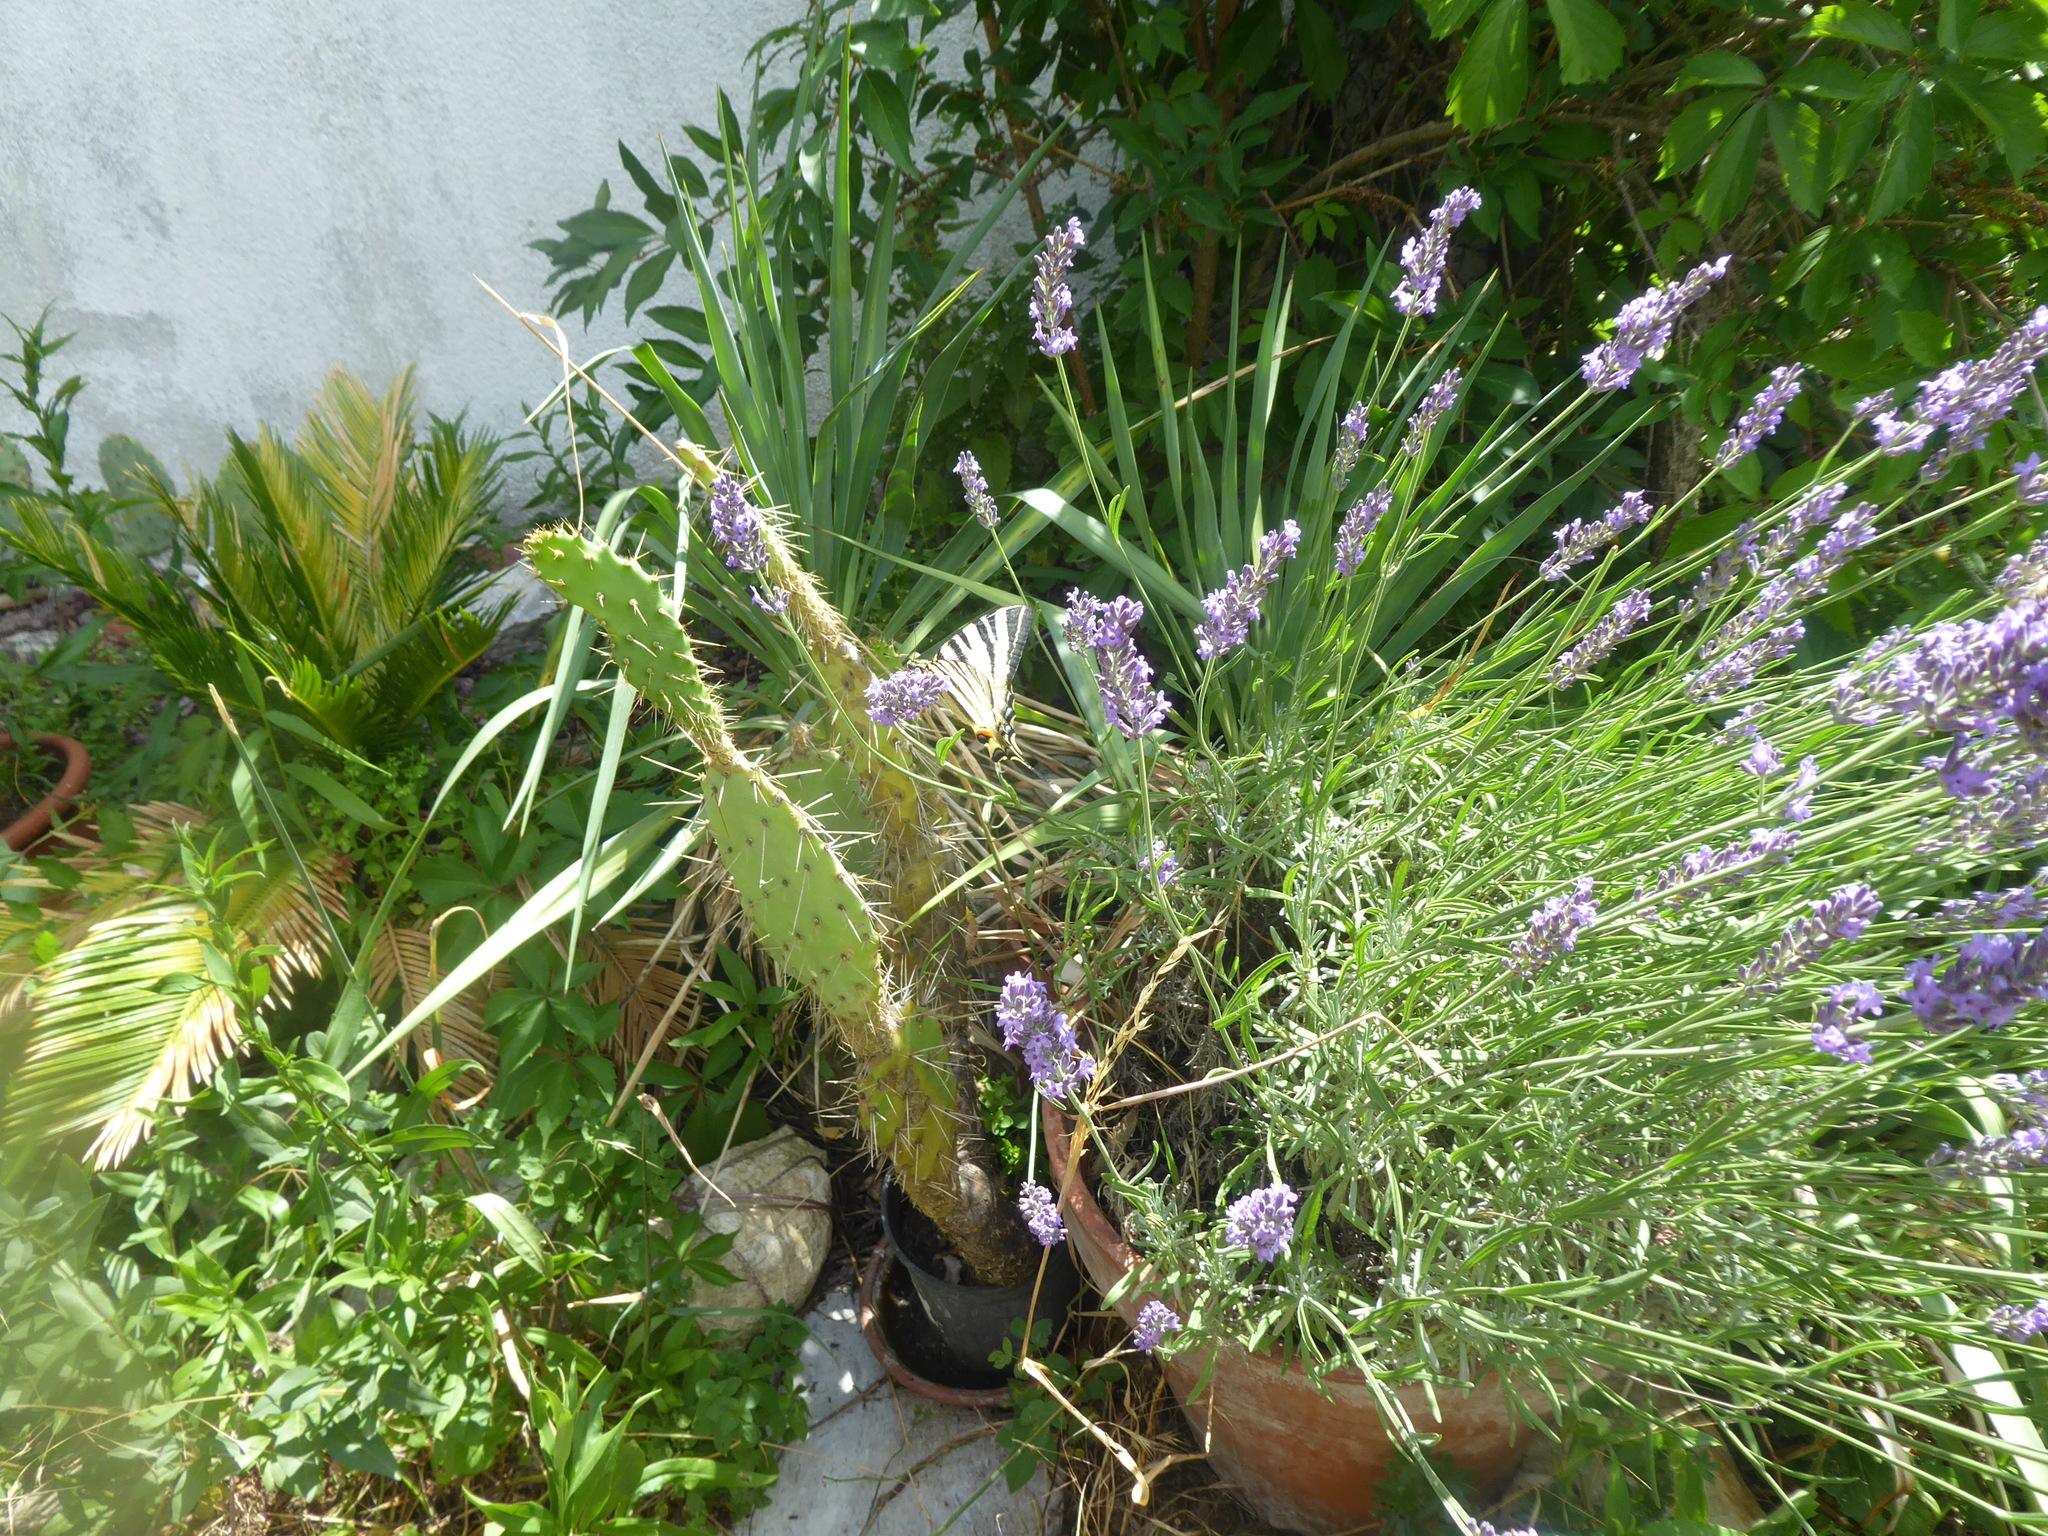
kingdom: Animalia
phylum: Arthropoda
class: Insecta
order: Lepidoptera
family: Papilionidae
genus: Iphiclides
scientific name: Iphiclides podalirius
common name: Scarce swallowtail
